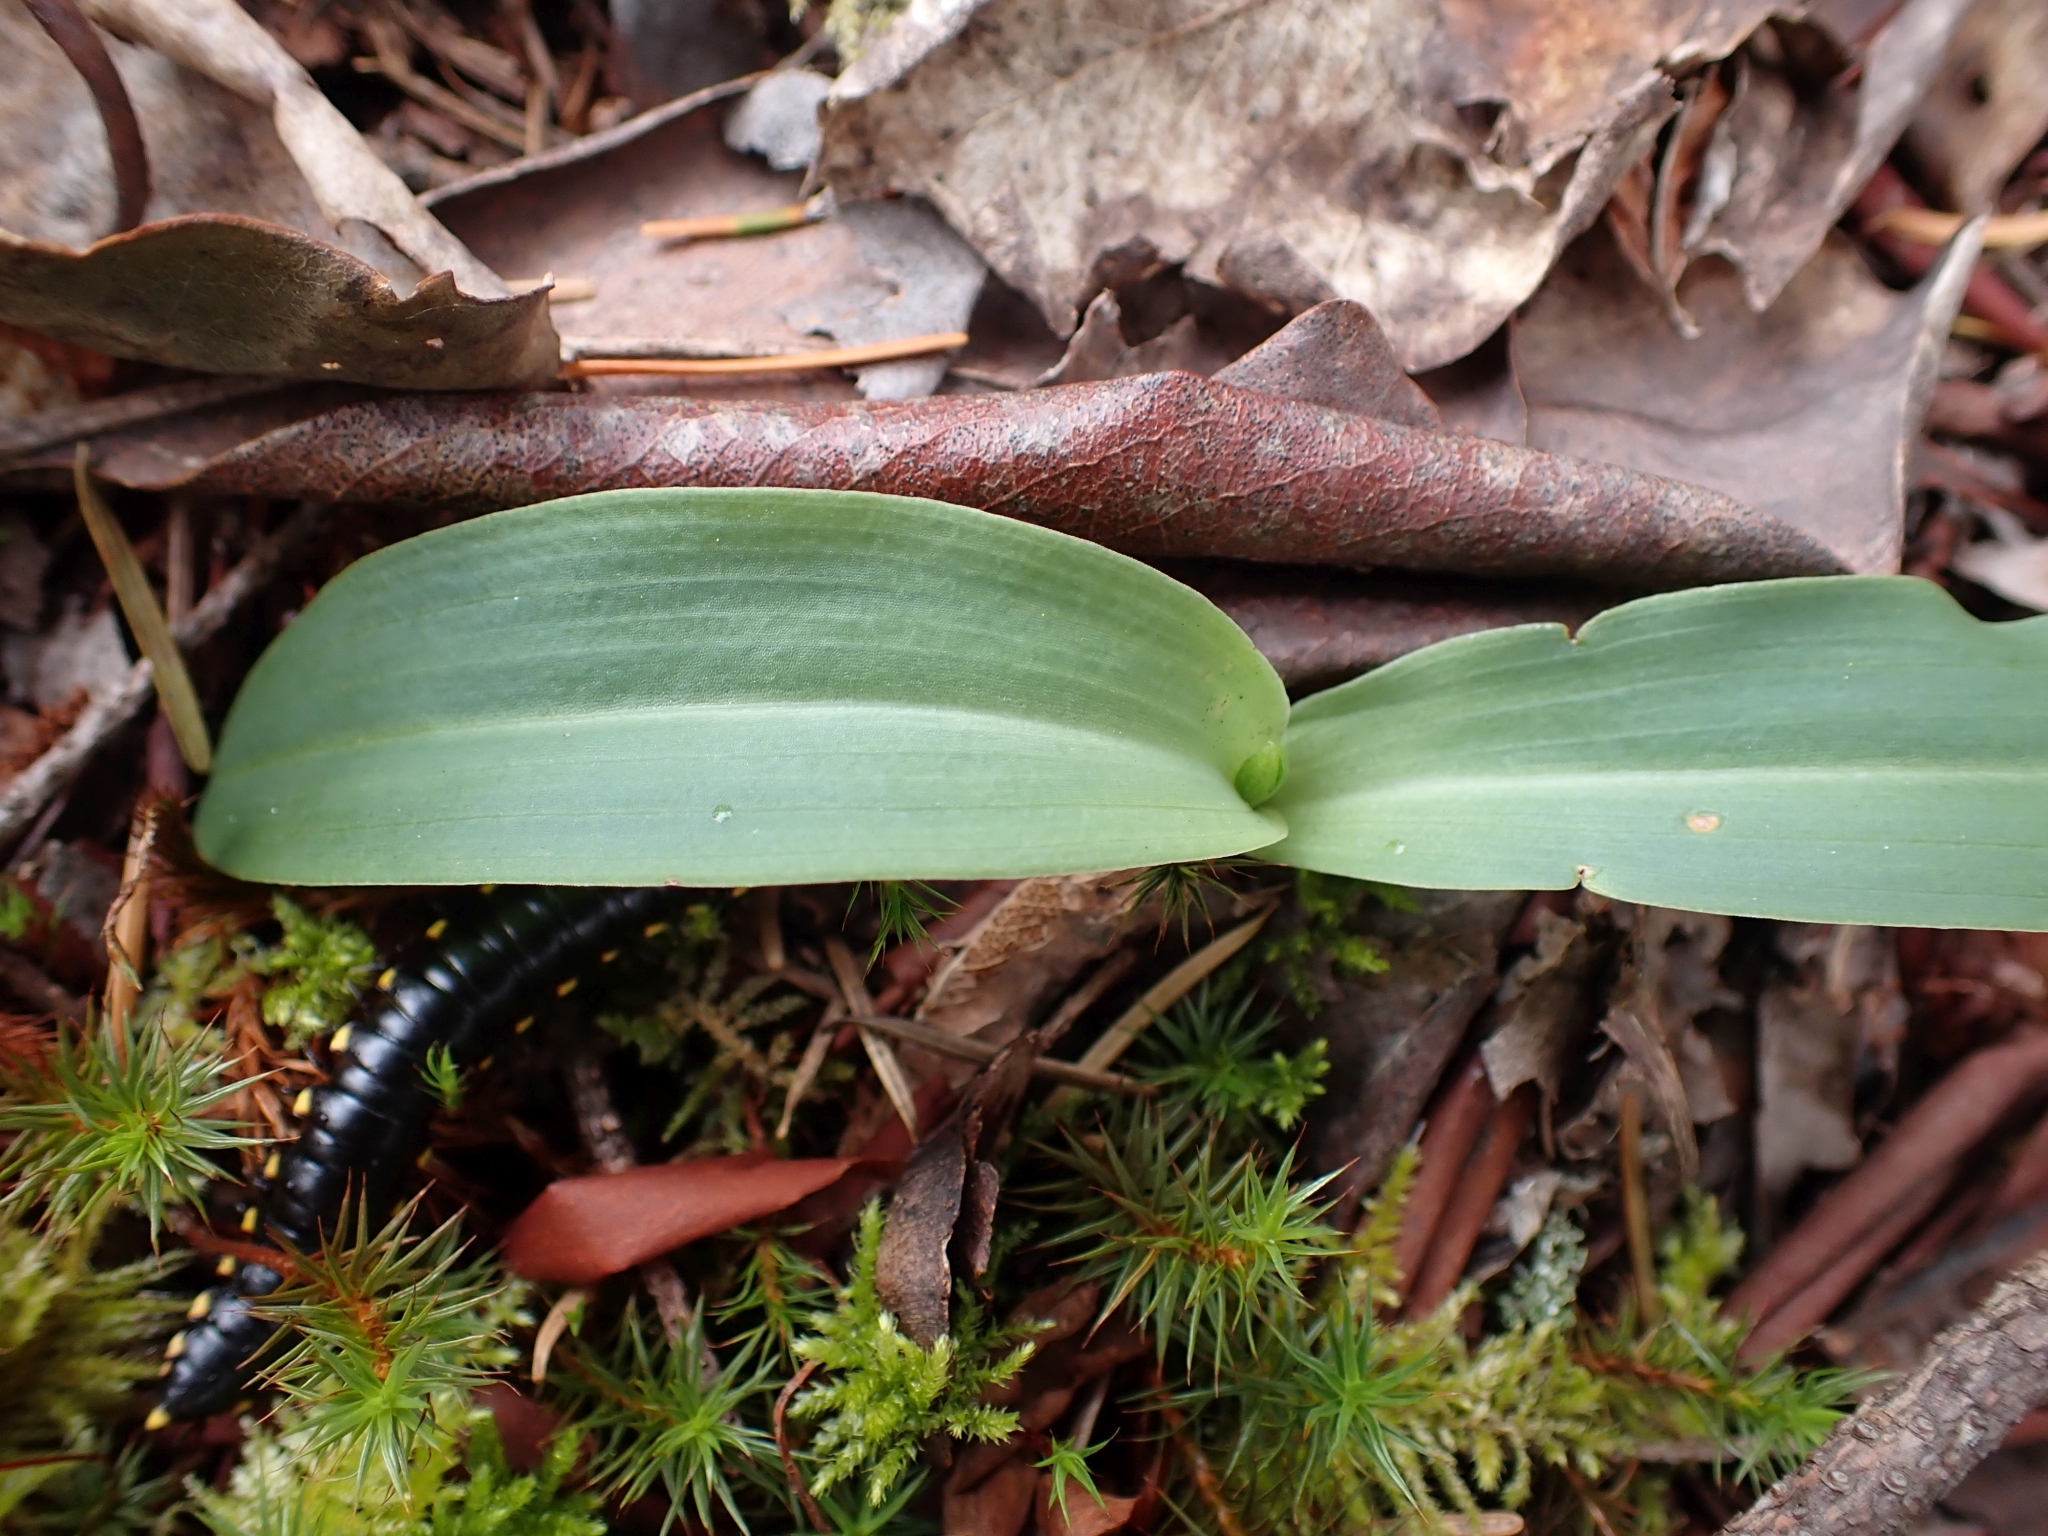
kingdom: Animalia
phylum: Arthropoda
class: Diplopoda
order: Polydesmida
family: Xystodesmidae
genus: Harpaphe
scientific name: Harpaphe haydeniana
